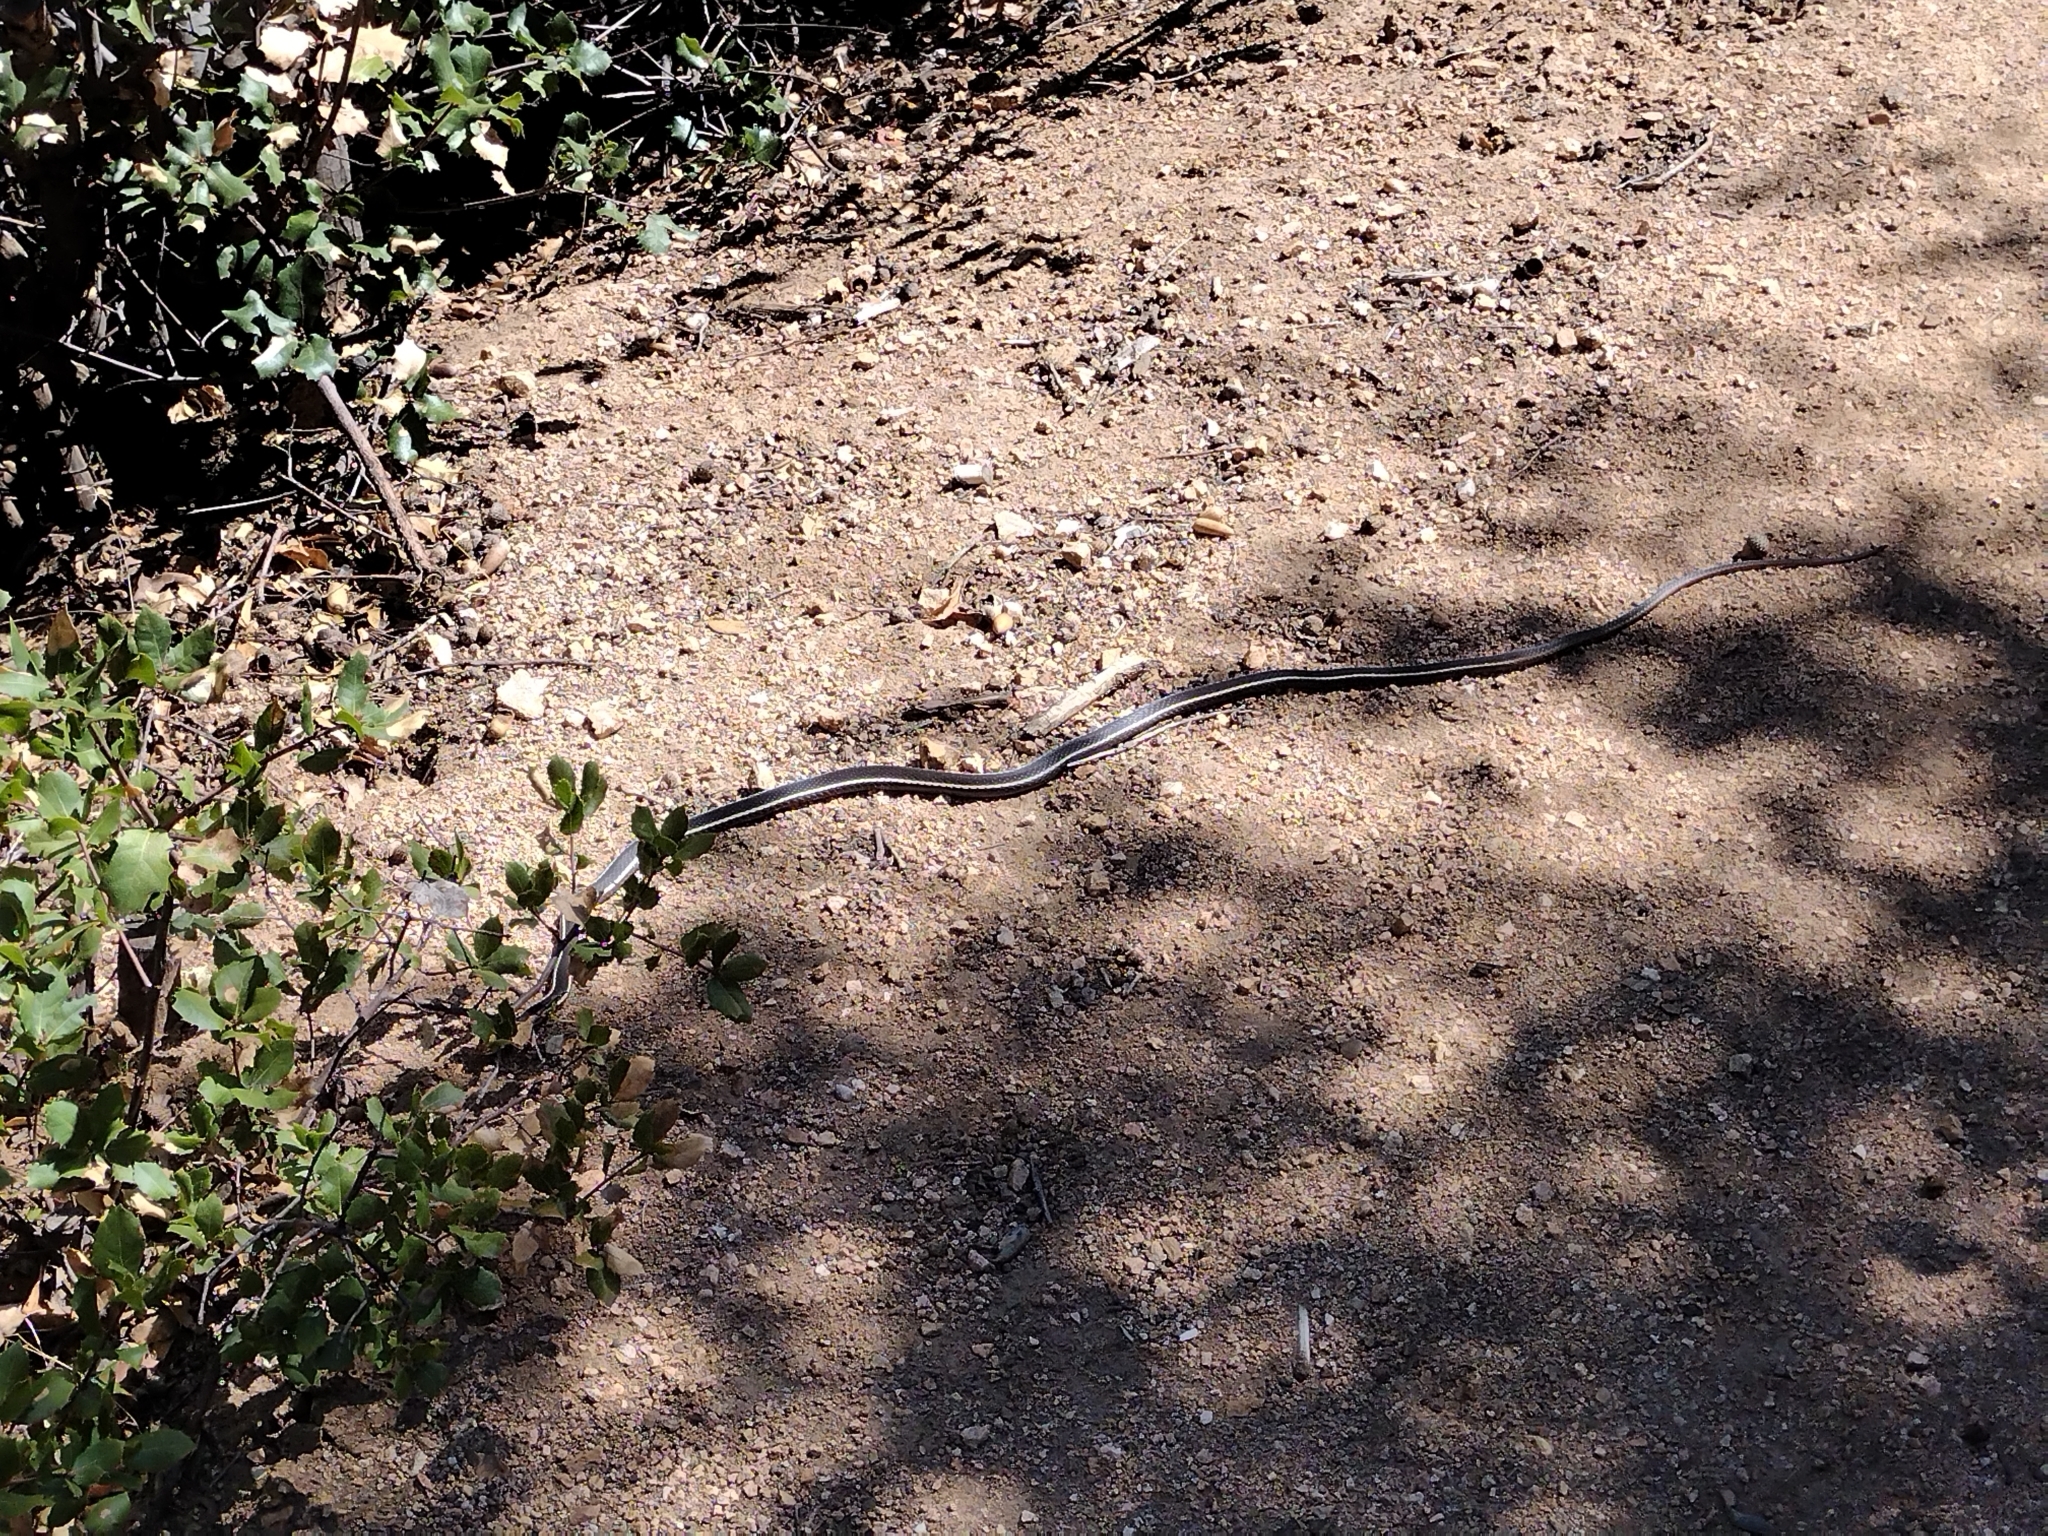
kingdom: Animalia
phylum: Chordata
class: Squamata
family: Colubridae
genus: Masticophis
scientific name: Masticophis lateralis
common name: Striped racer
